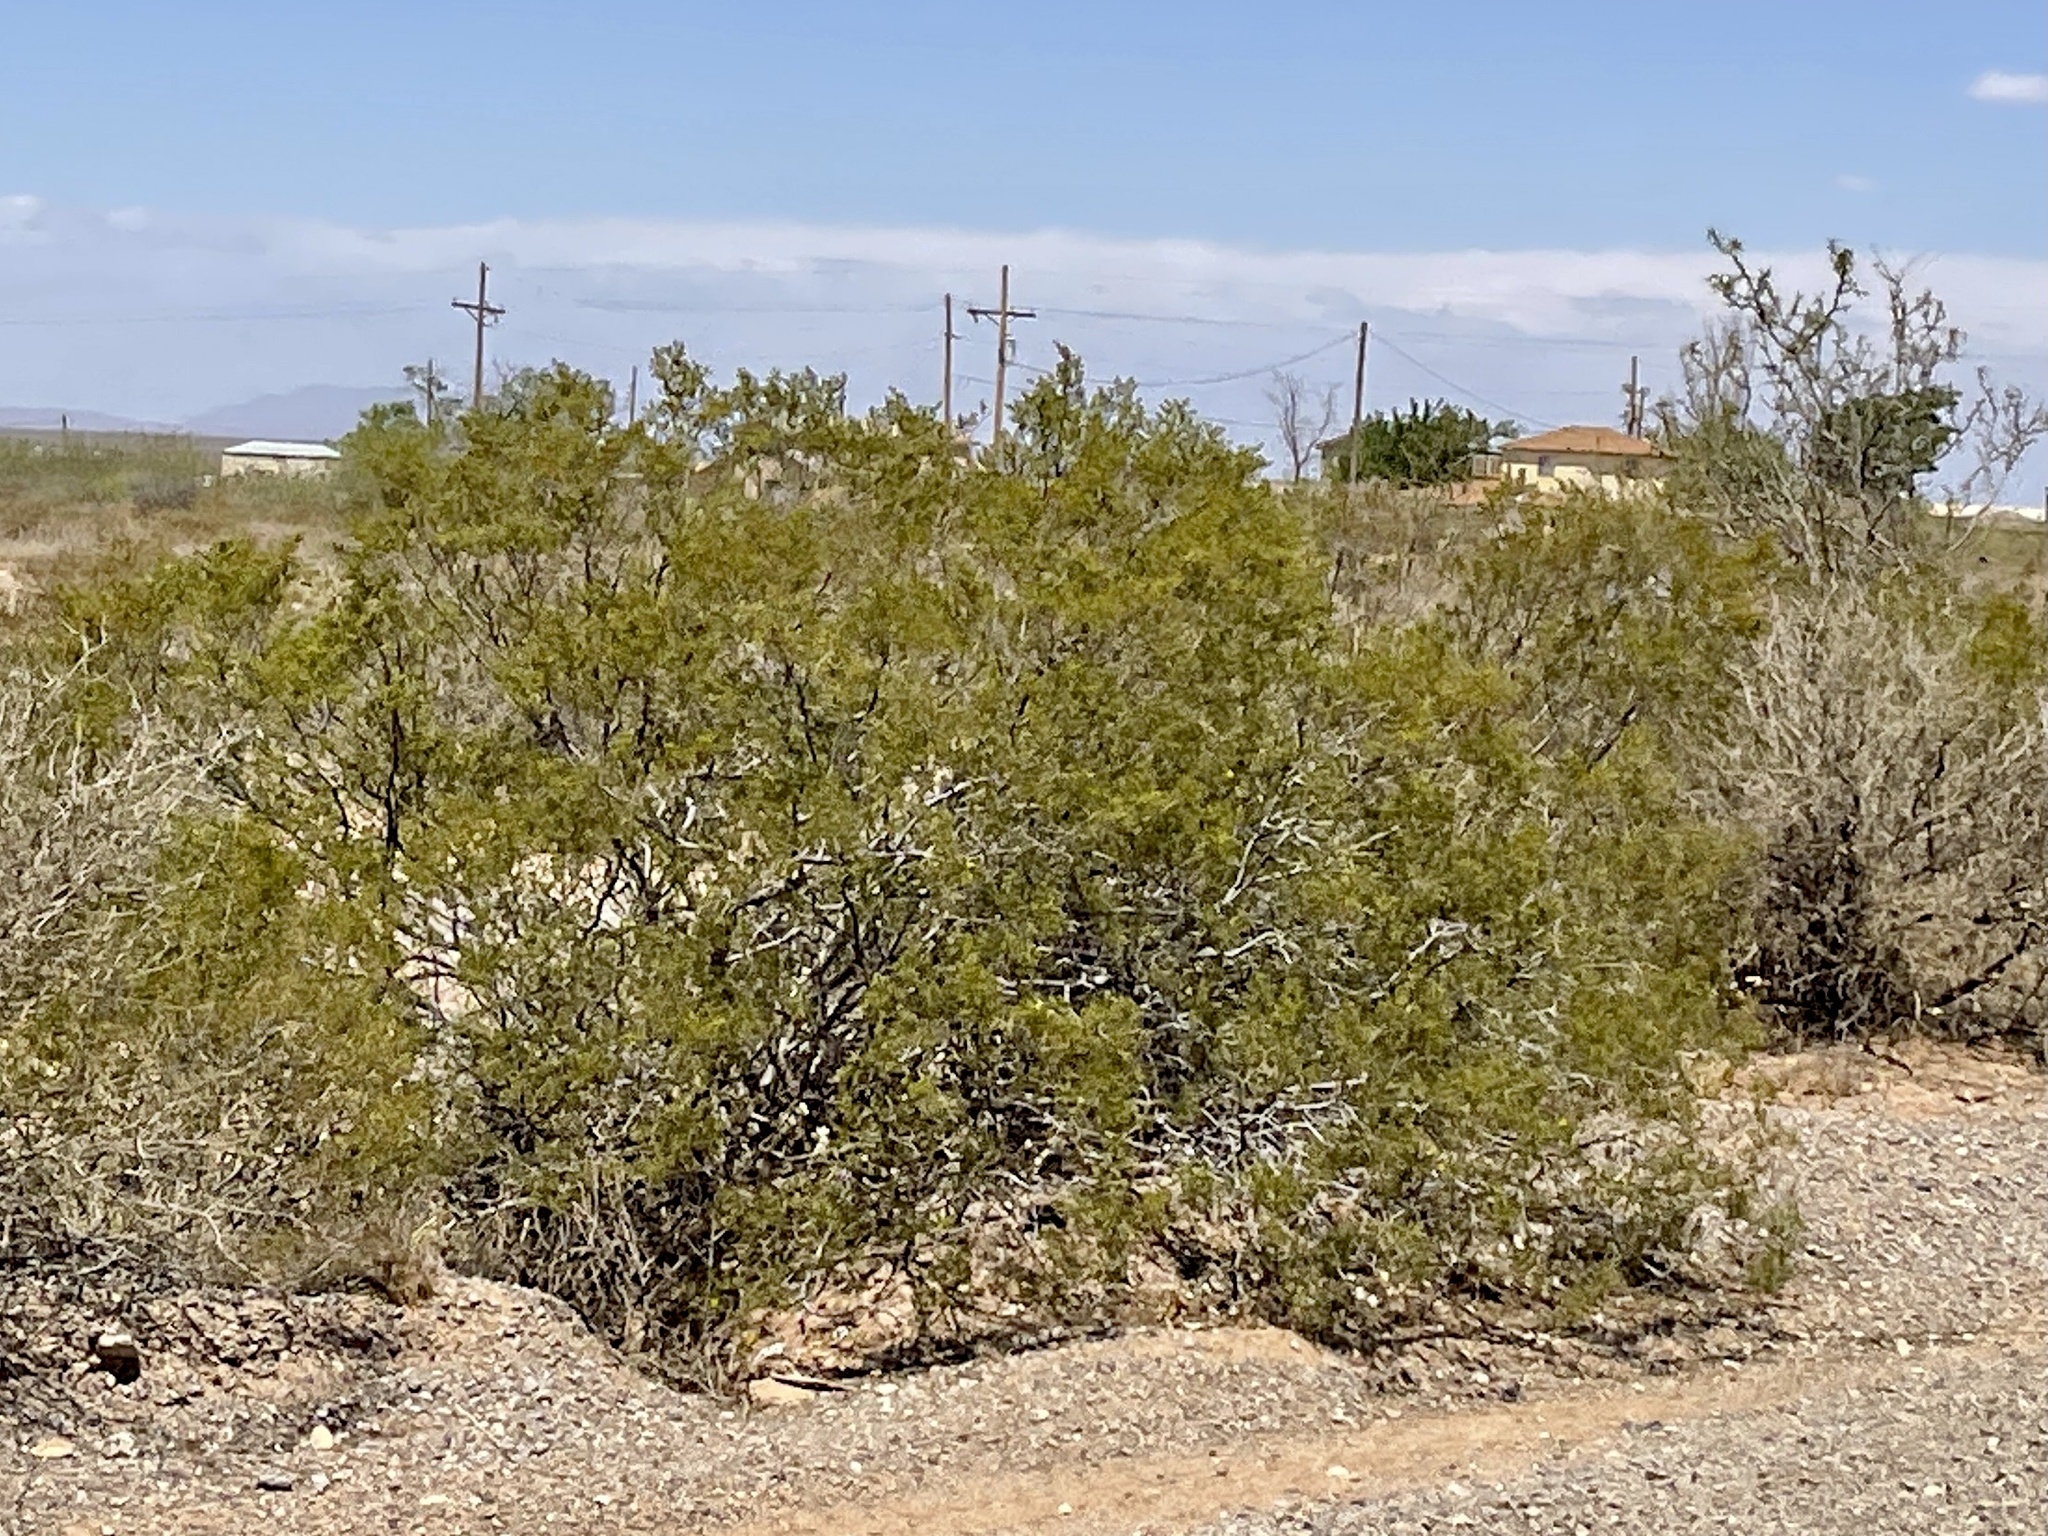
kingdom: Plantae
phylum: Tracheophyta
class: Magnoliopsida
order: Zygophyllales
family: Zygophyllaceae
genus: Larrea
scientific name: Larrea tridentata
